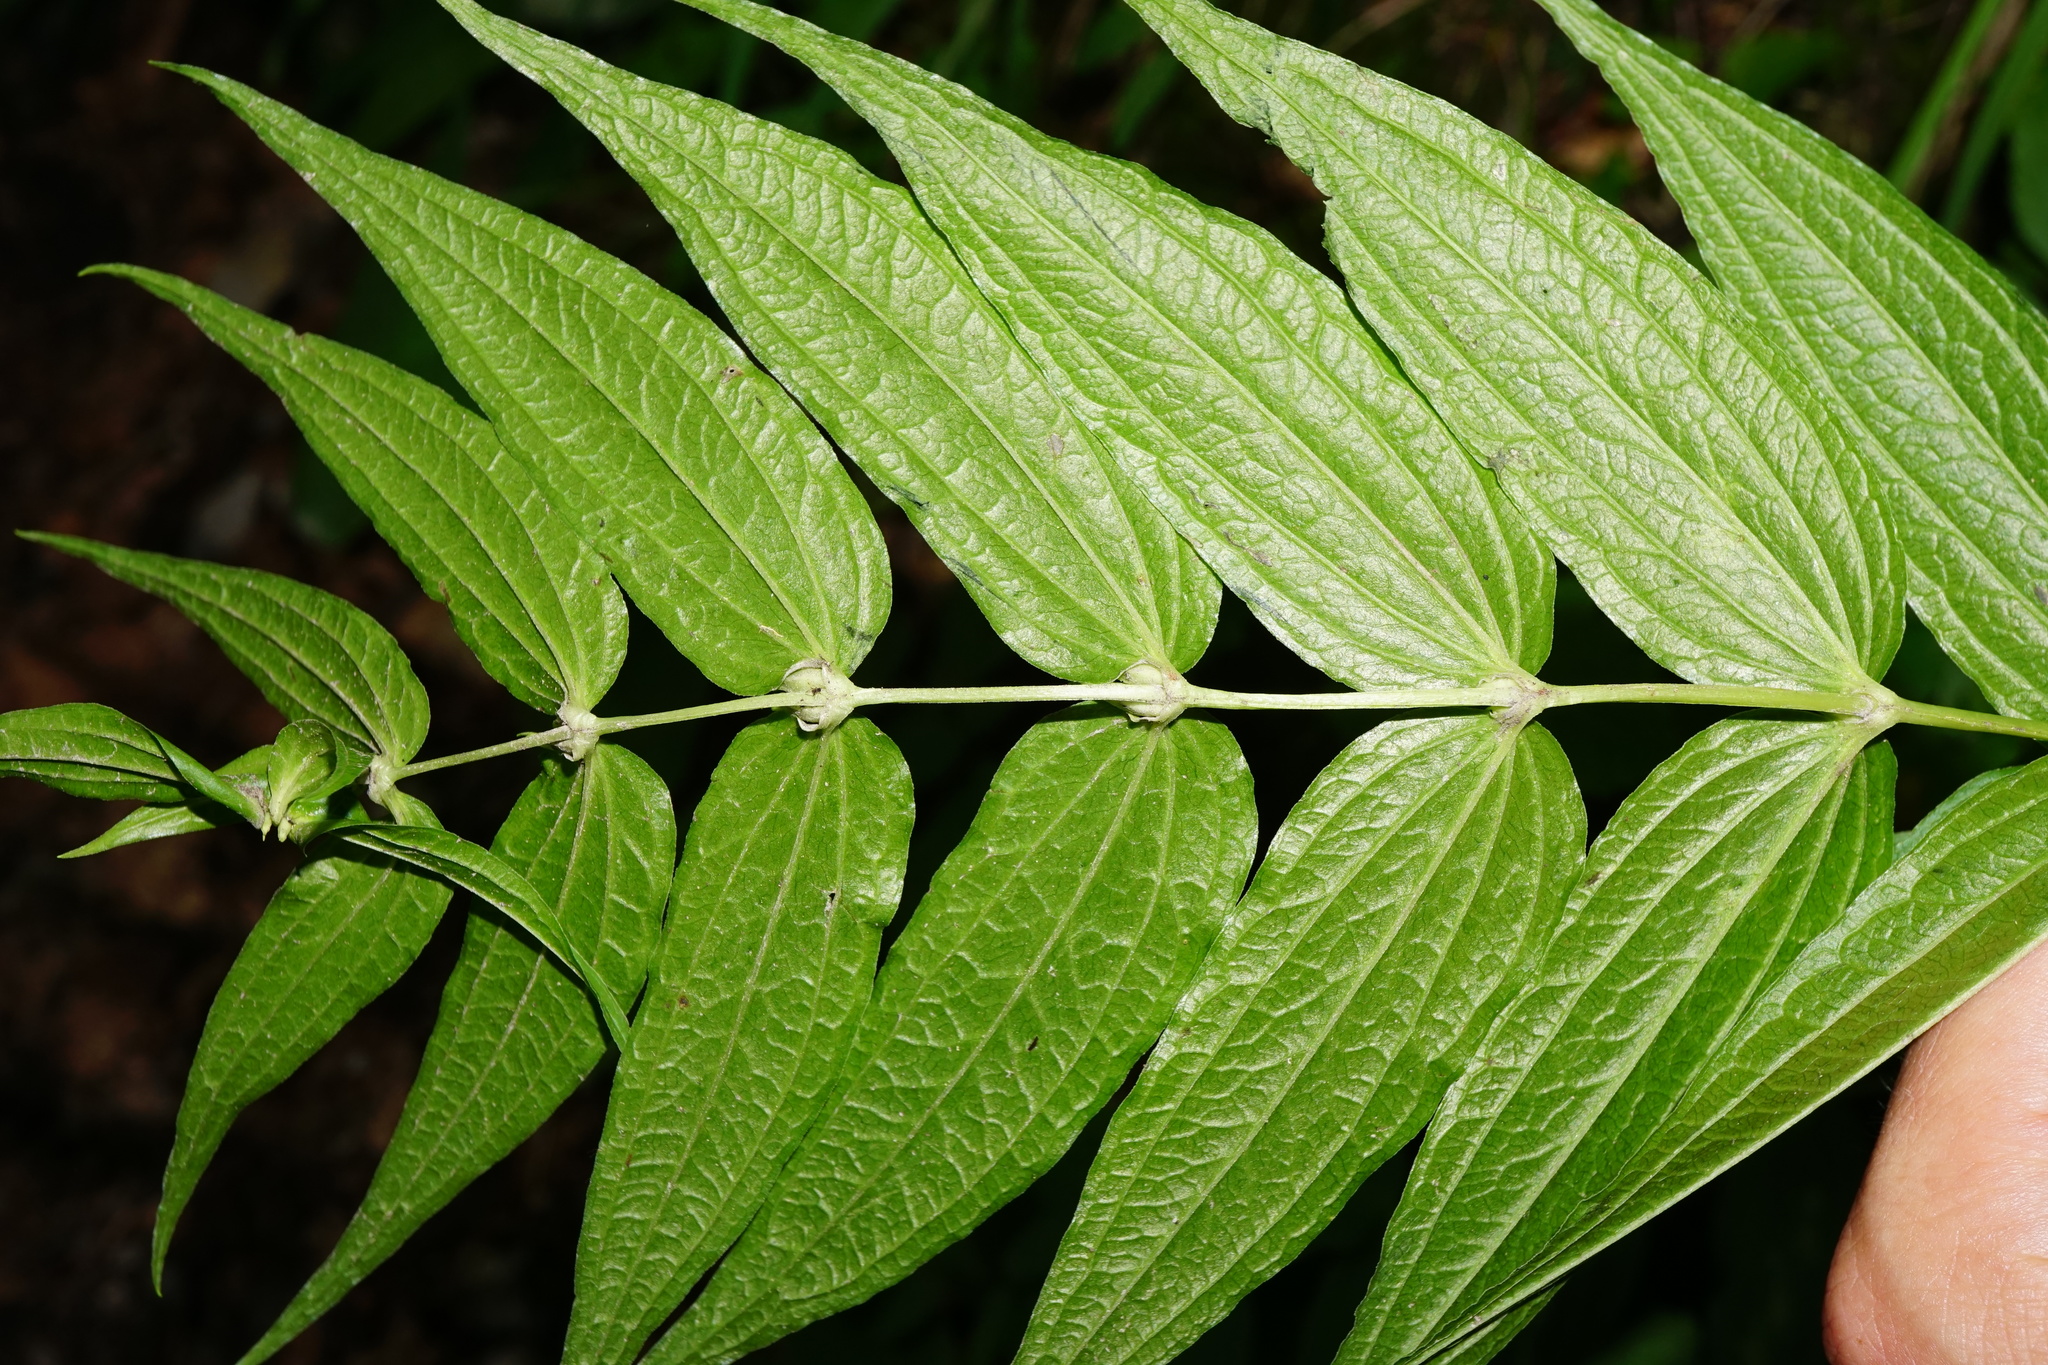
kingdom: Plantae
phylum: Tracheophyta
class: Magnoliopsida
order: Gentianales
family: Gentianaceae
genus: Gentiana
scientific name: Gentiana asclepiadea
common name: Willow gentian
